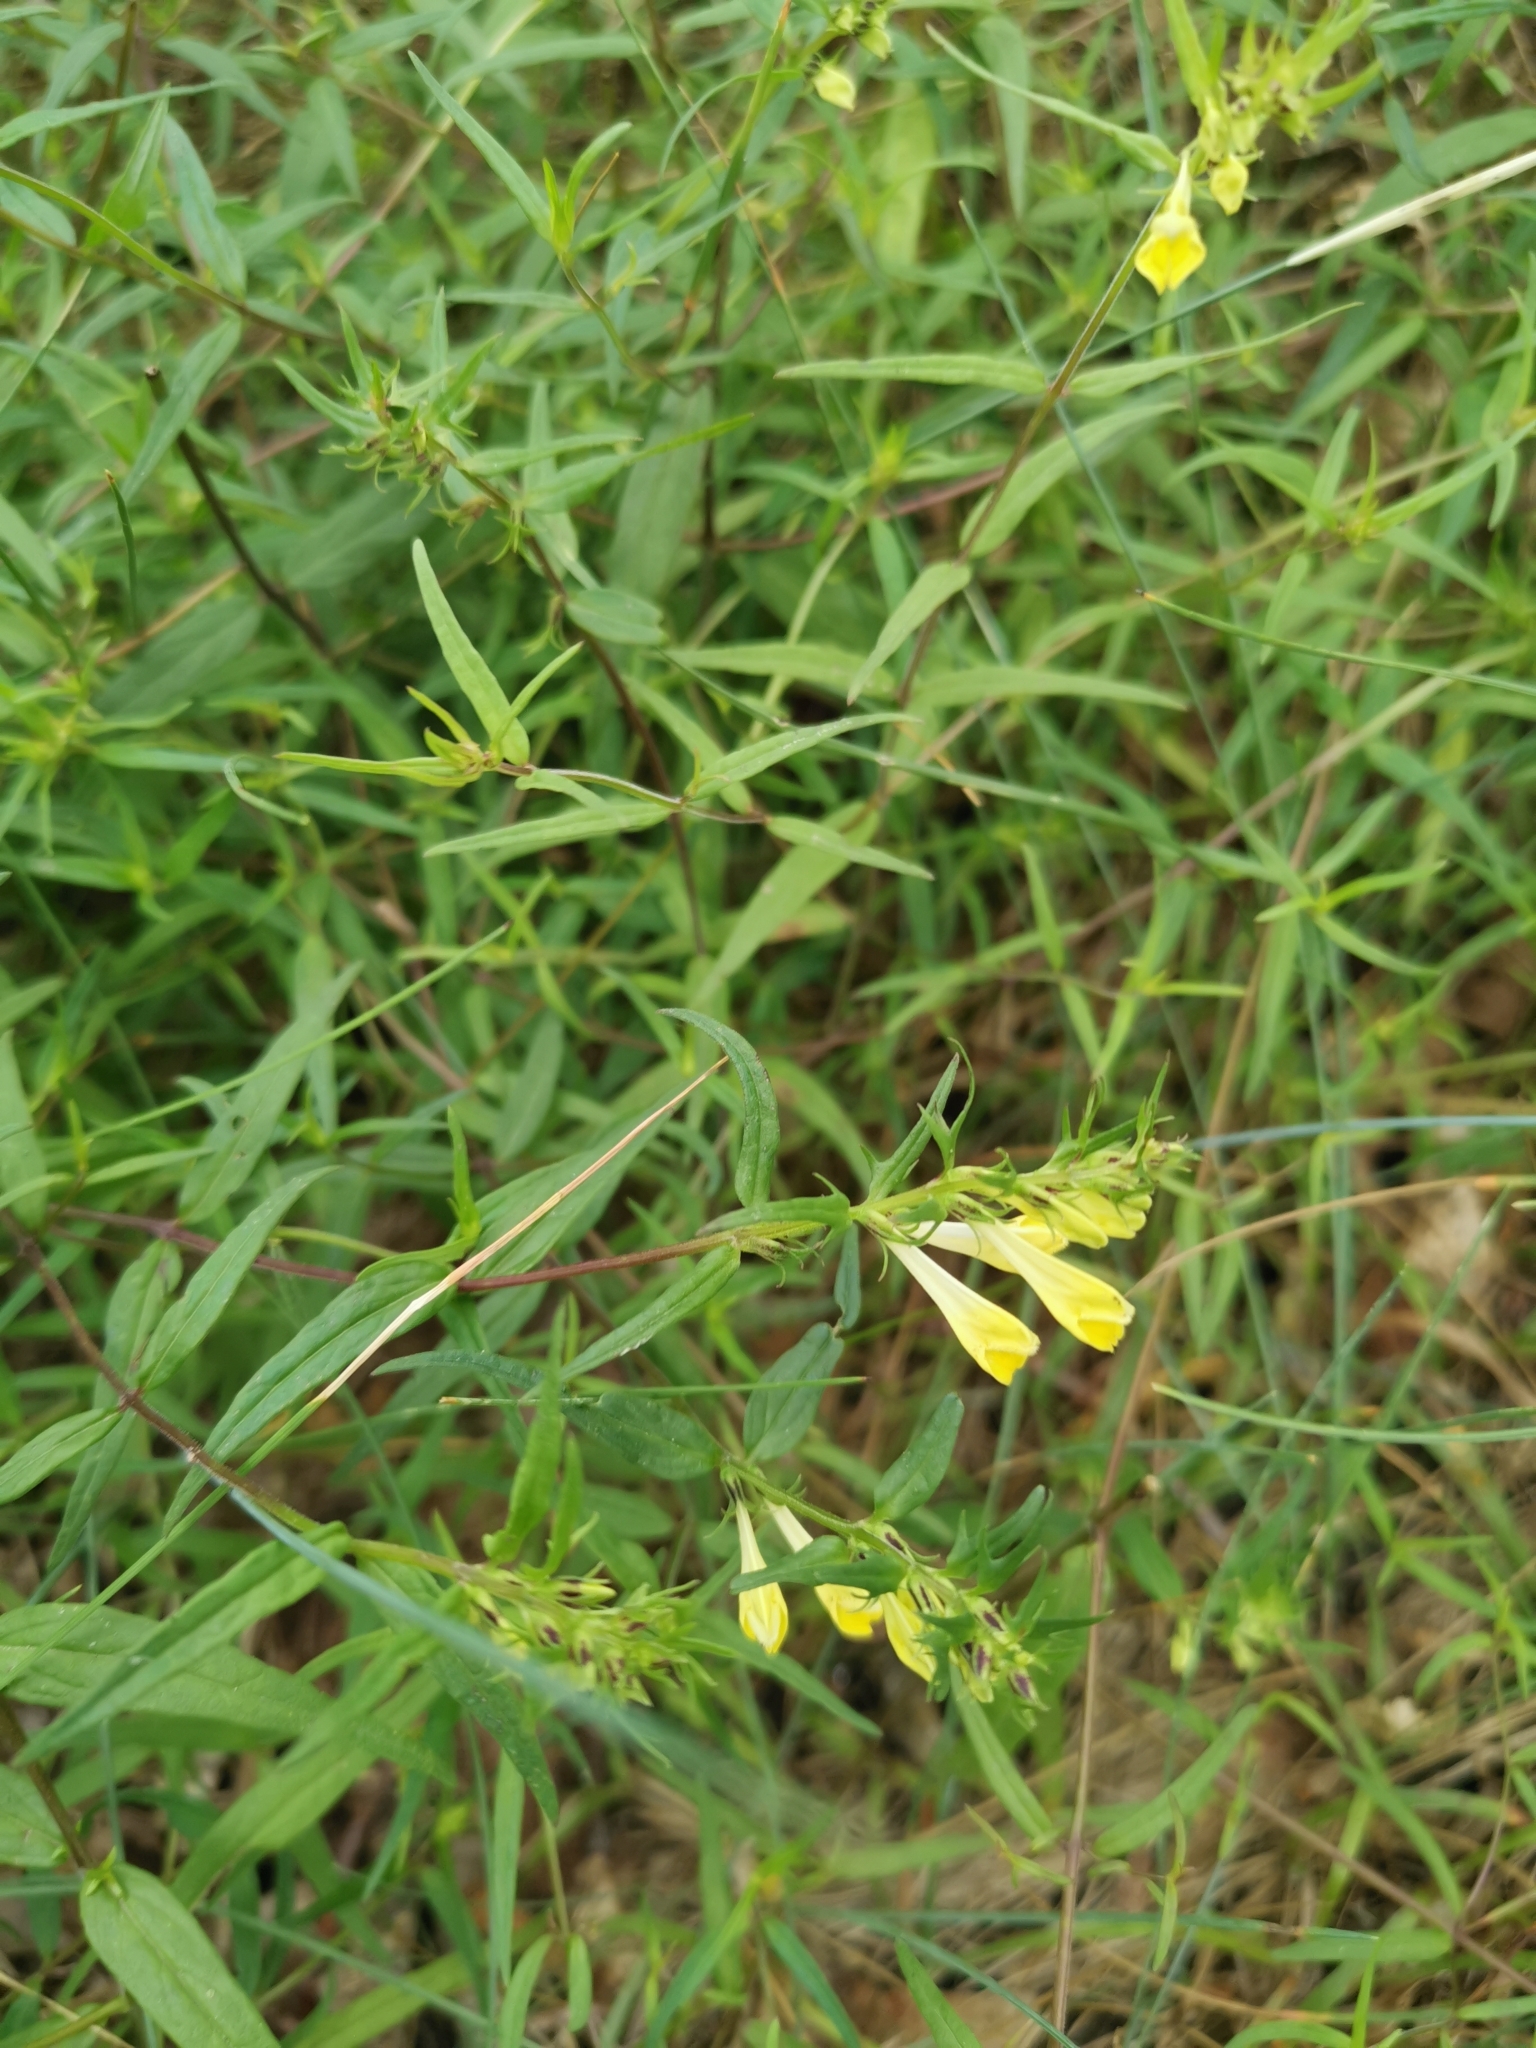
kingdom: Plantae
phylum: Tracheophyta
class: Magnoliopsida
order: Lamiales
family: Orobanchaceae
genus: Melampyrum
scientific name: Melampyrum pratense
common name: Common cow-wheat
